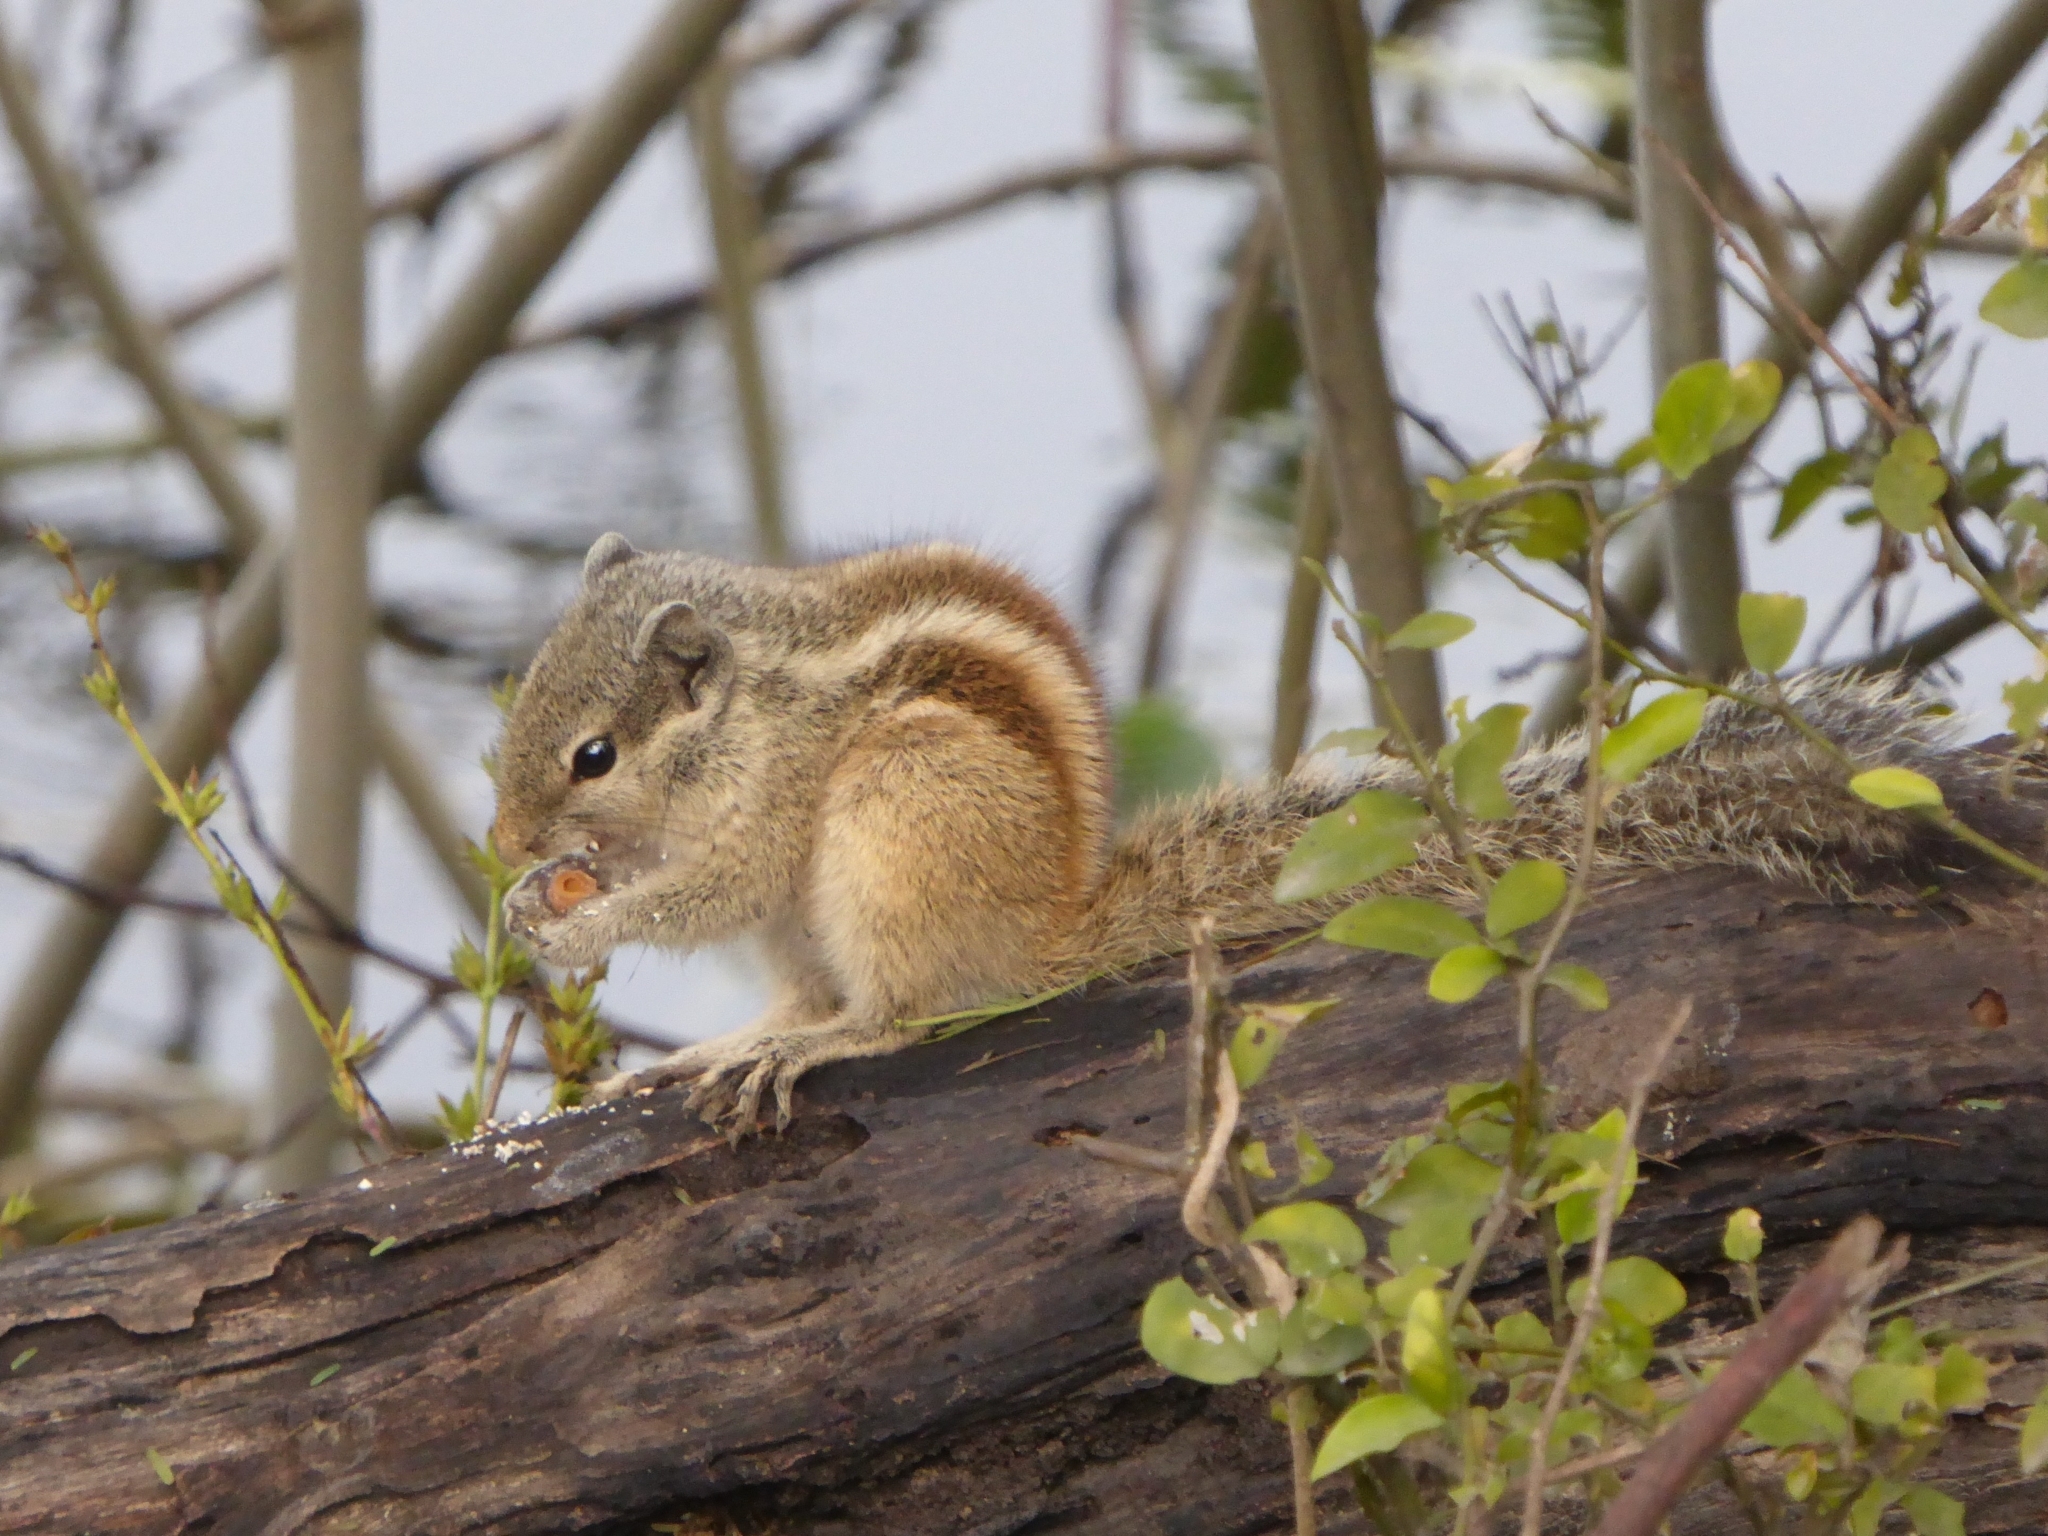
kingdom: Animalia
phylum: Chordata
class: Mammalia
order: Rodentia
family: Sciuridae
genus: Funambulus
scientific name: Funambulus pennantii
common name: Northern palm squirrel
